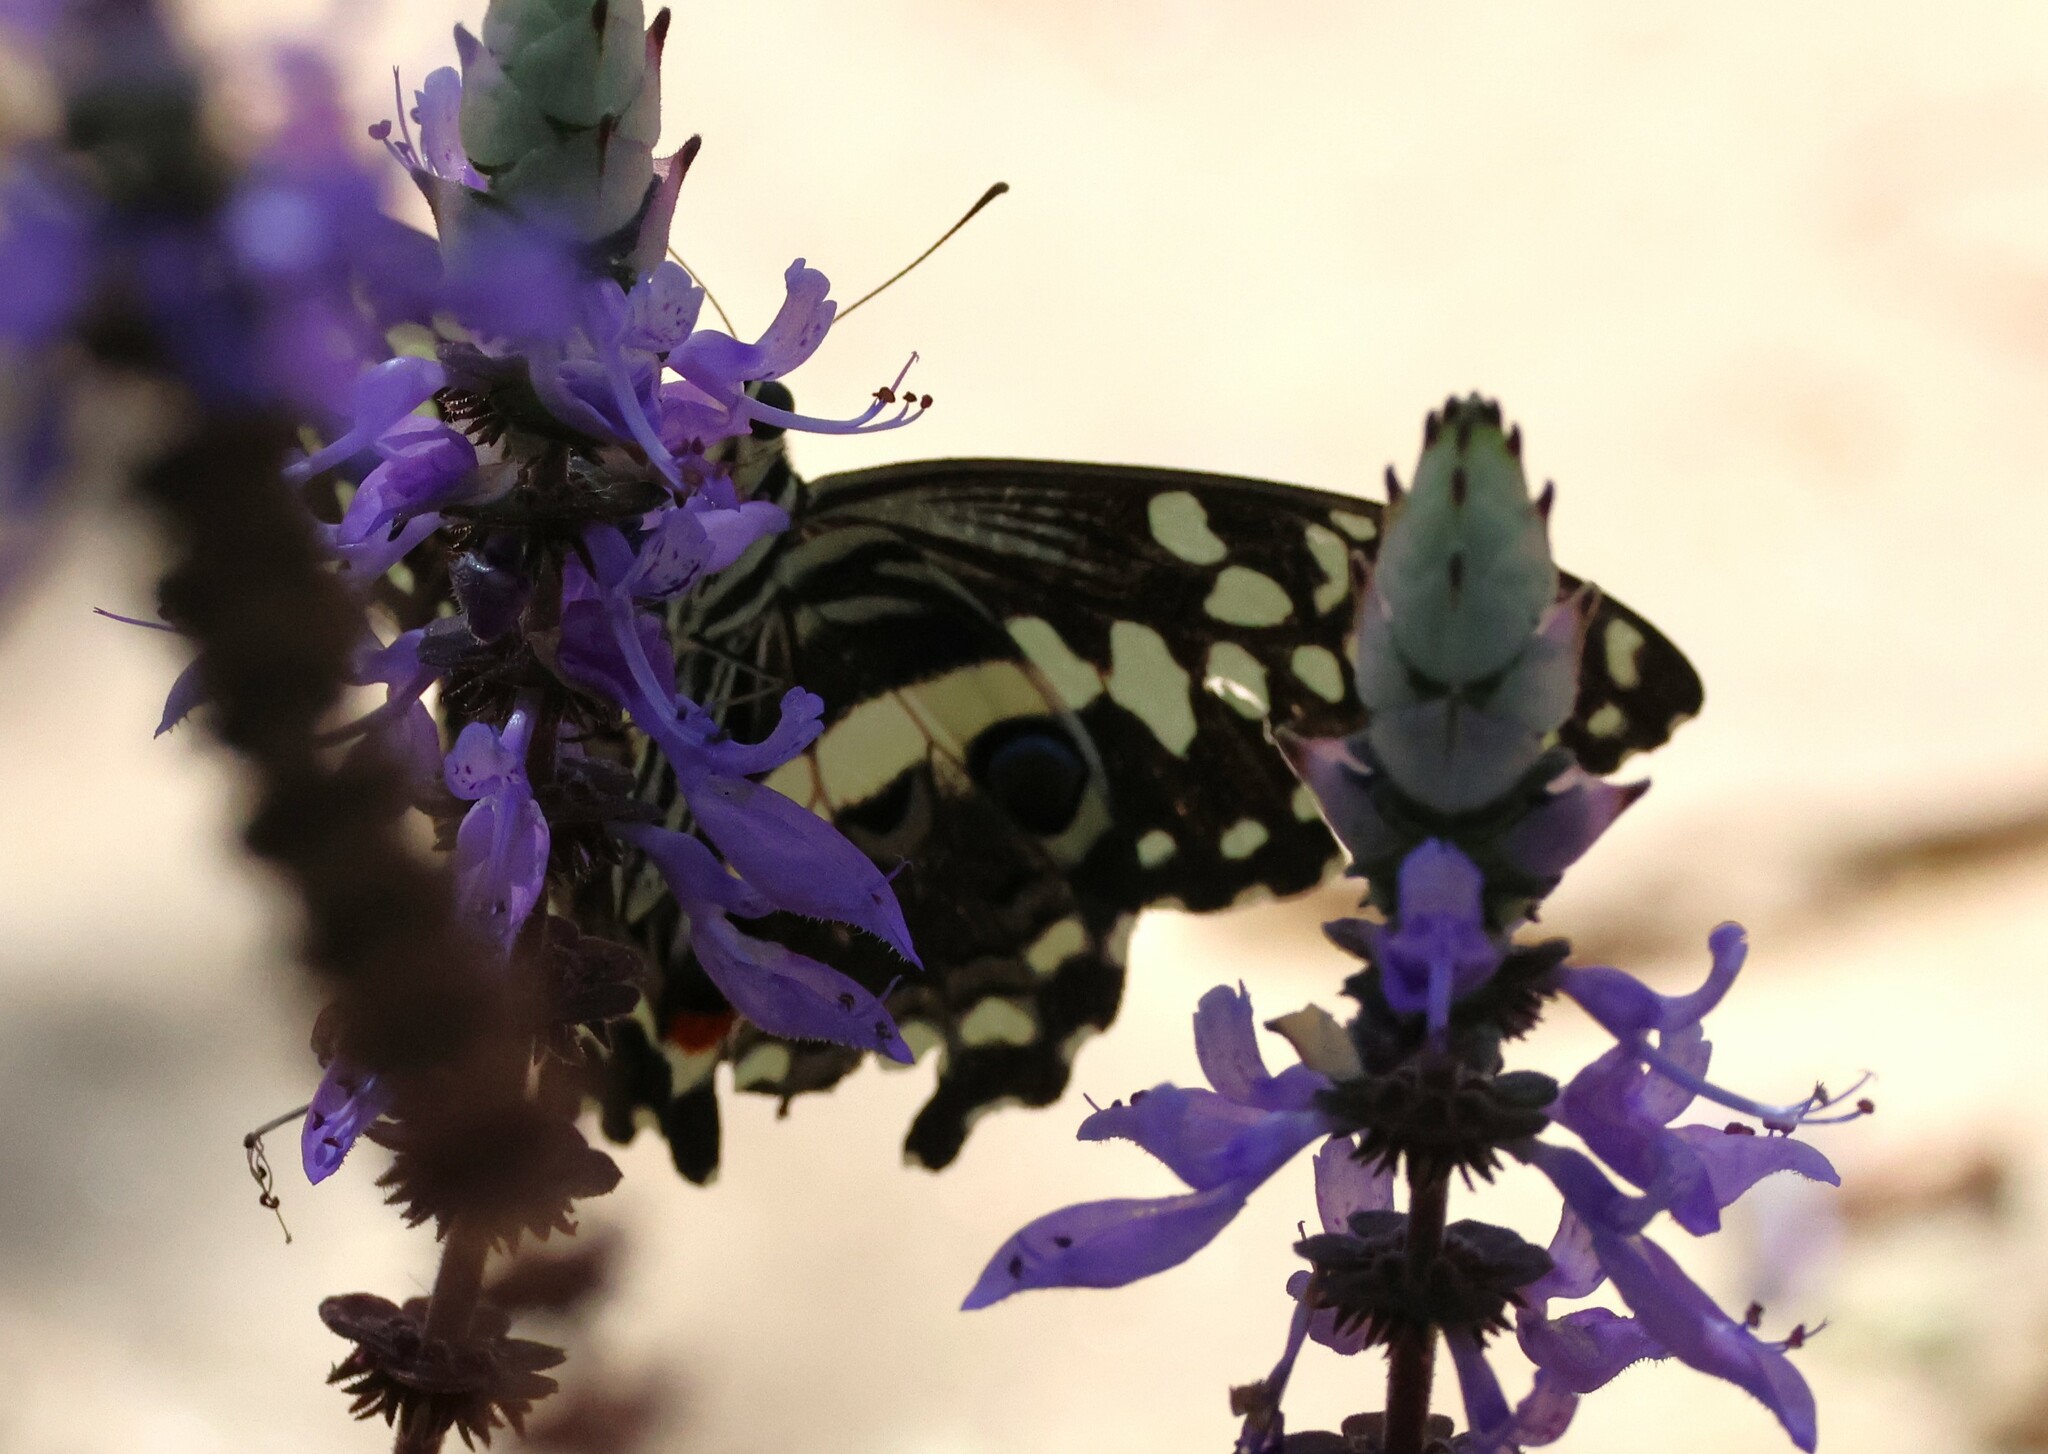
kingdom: Animalia
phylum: Arthropoda
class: Insecta
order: Lepidoptera
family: Papilionidae
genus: Papilio
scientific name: Papilio demodocus
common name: Christmas butterfly
